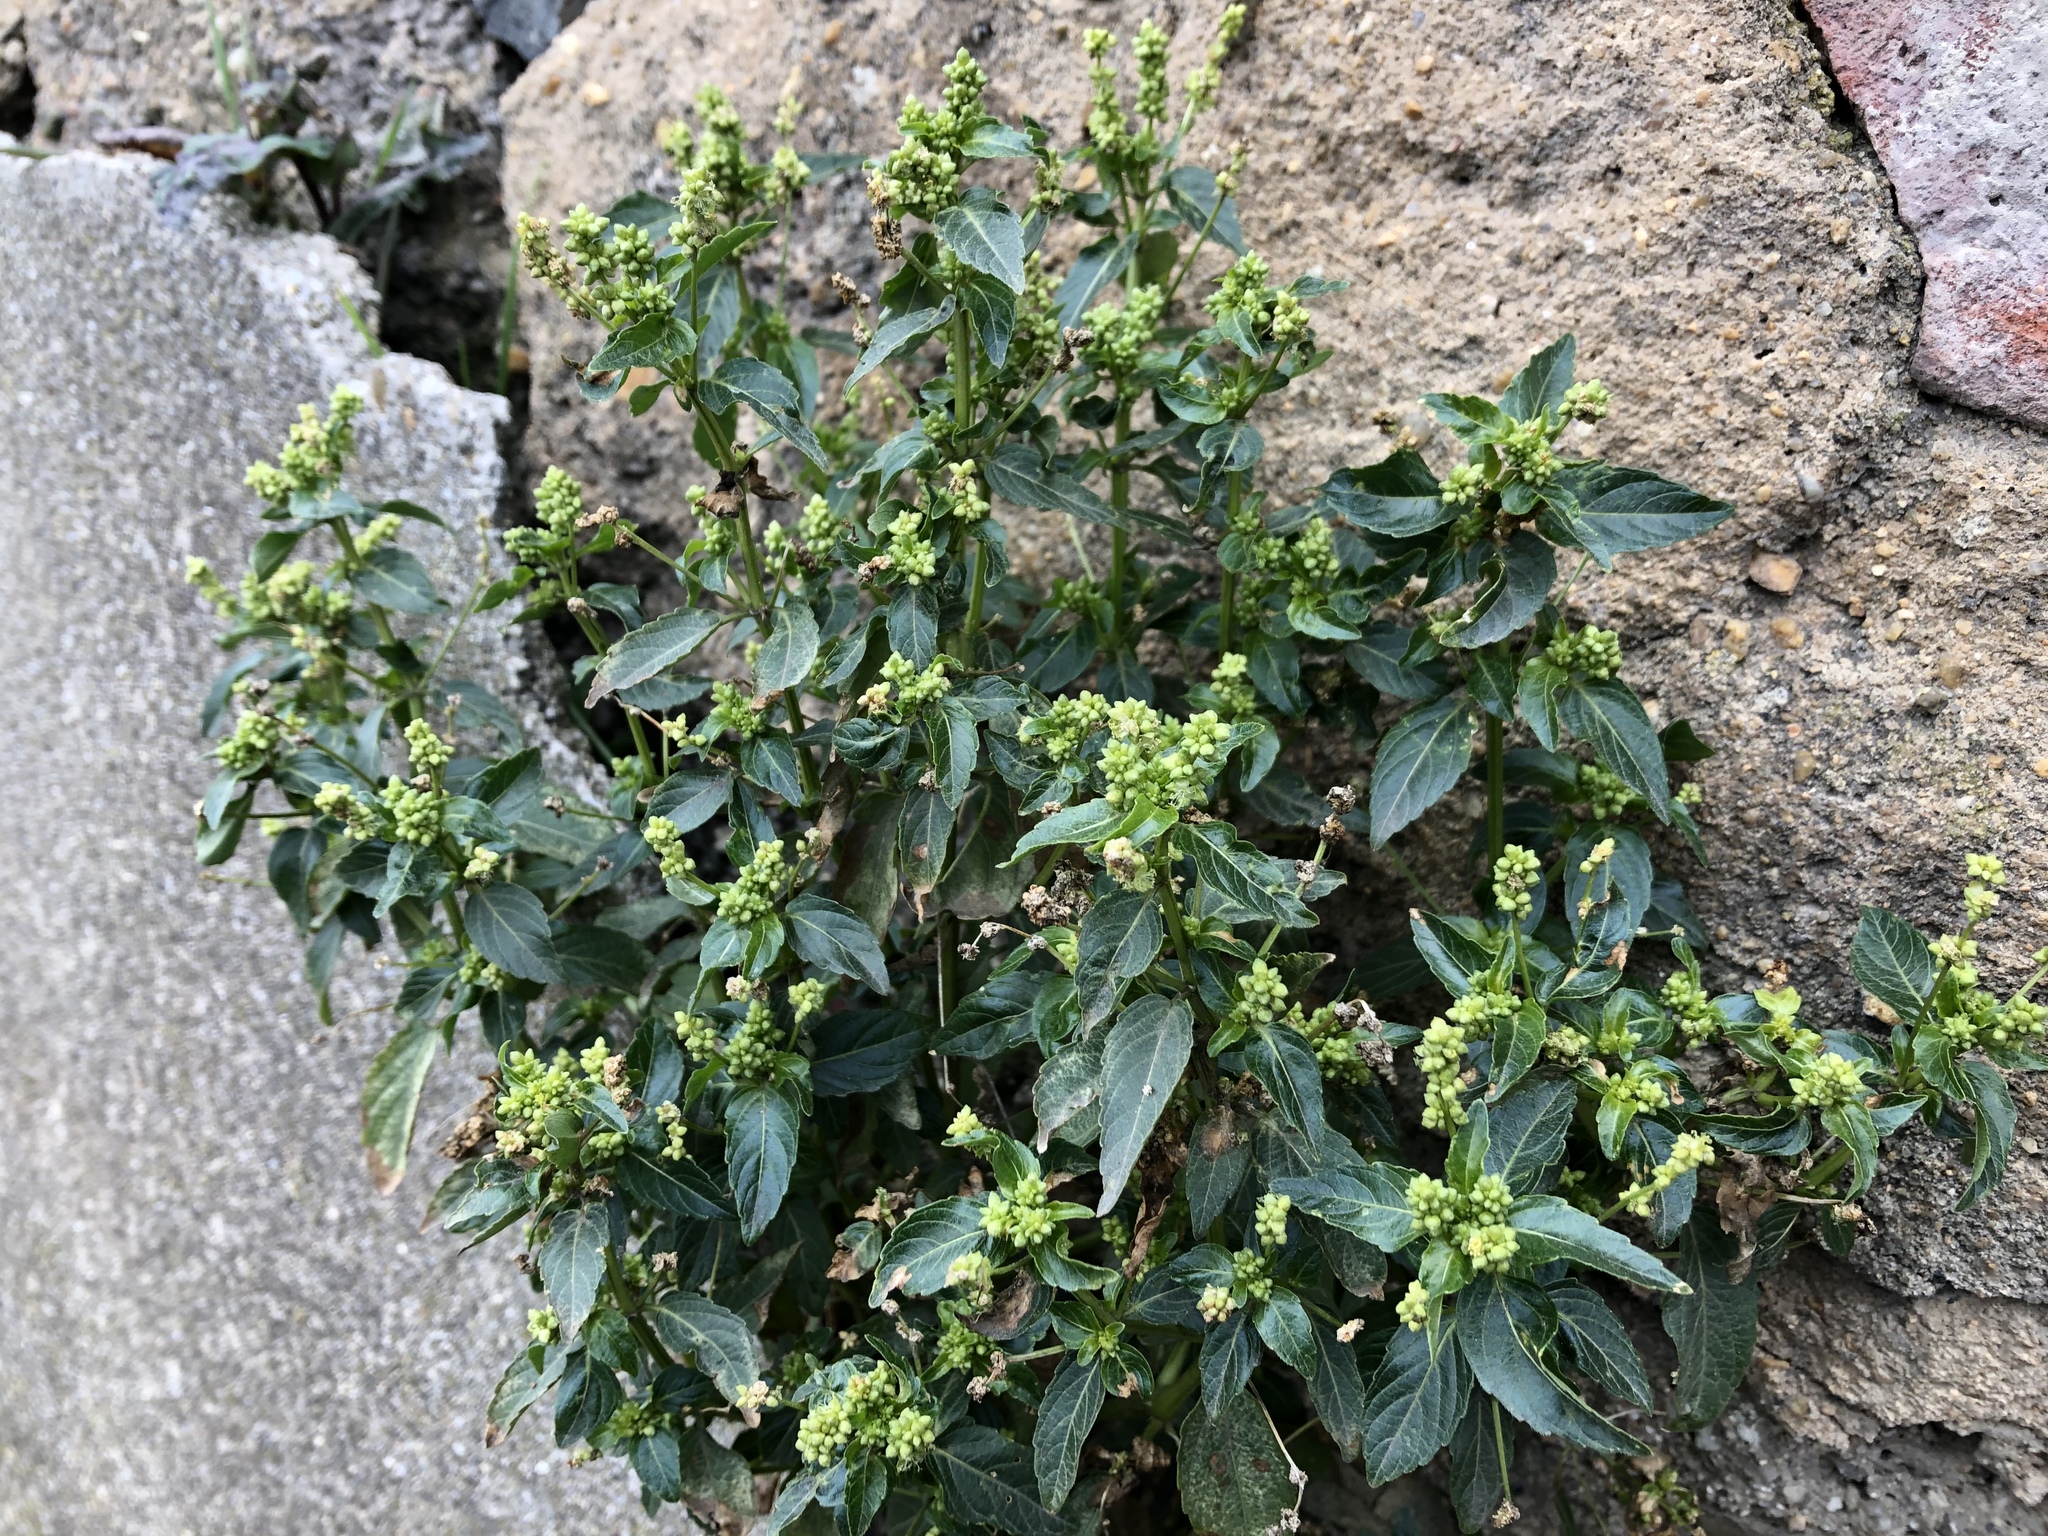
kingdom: Plantae
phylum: Tracheophyta
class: Magnoliopsida
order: Malpighiales
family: Euphorbiaceae
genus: Mercurialis
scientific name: Mercurialis annua
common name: Annual mercury
